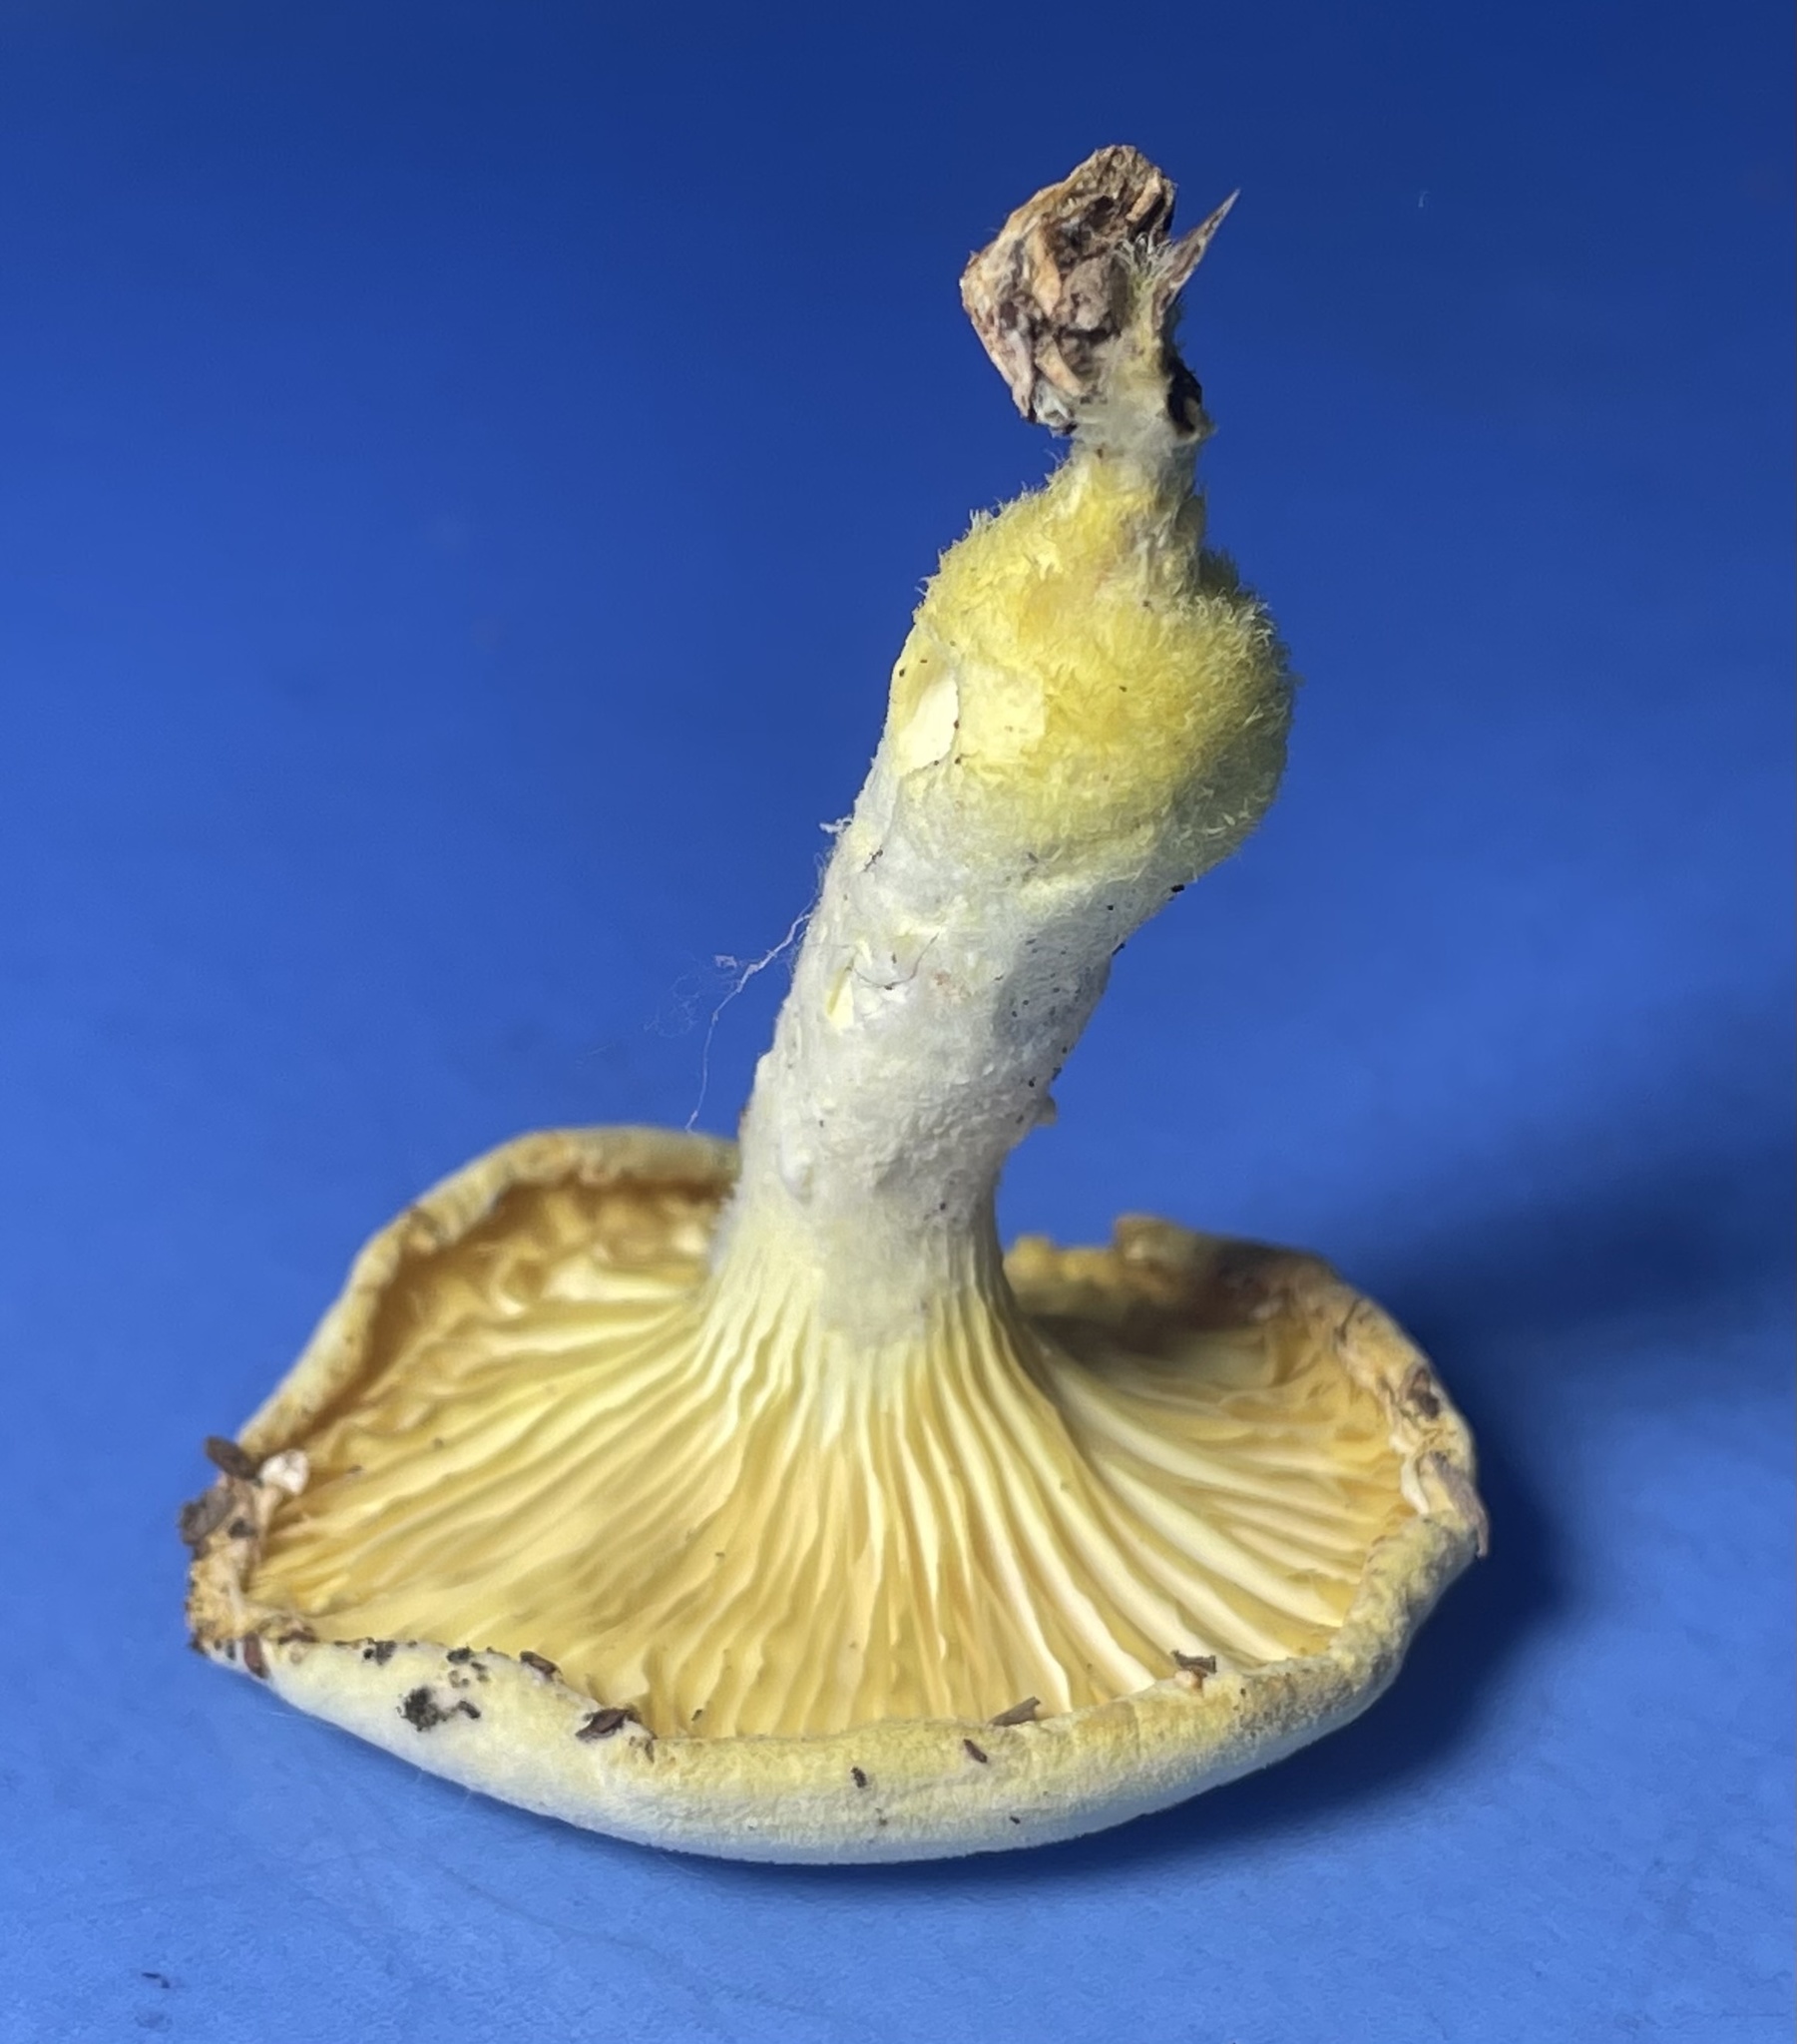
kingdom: Fungi
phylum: Basidiomycota
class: Agaricomycetes
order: Polyporales
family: Polyporaceae
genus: Lentinus
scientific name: Lentinus levis
